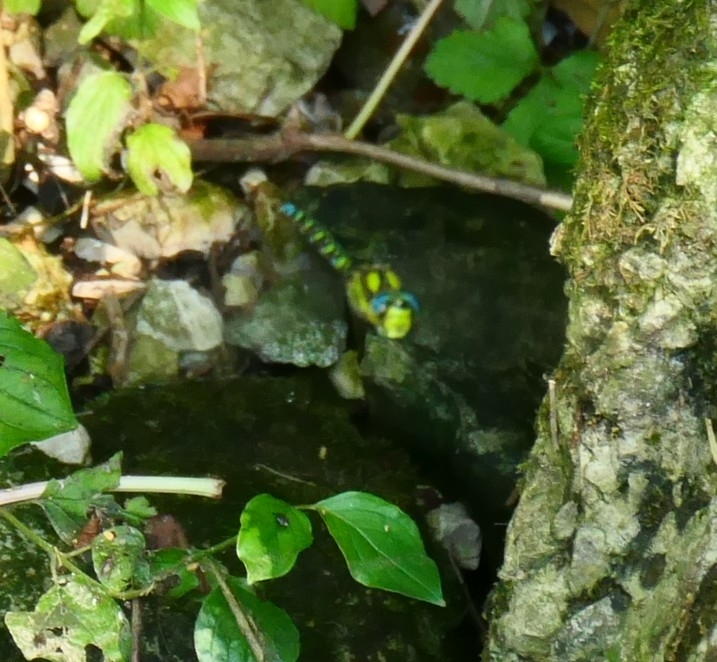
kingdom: Animalia
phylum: Arthropoda
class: Insecta
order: Odonata
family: Aeshnidae
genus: Aeshna
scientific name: Aeshna cyanea
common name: Southern hawker
